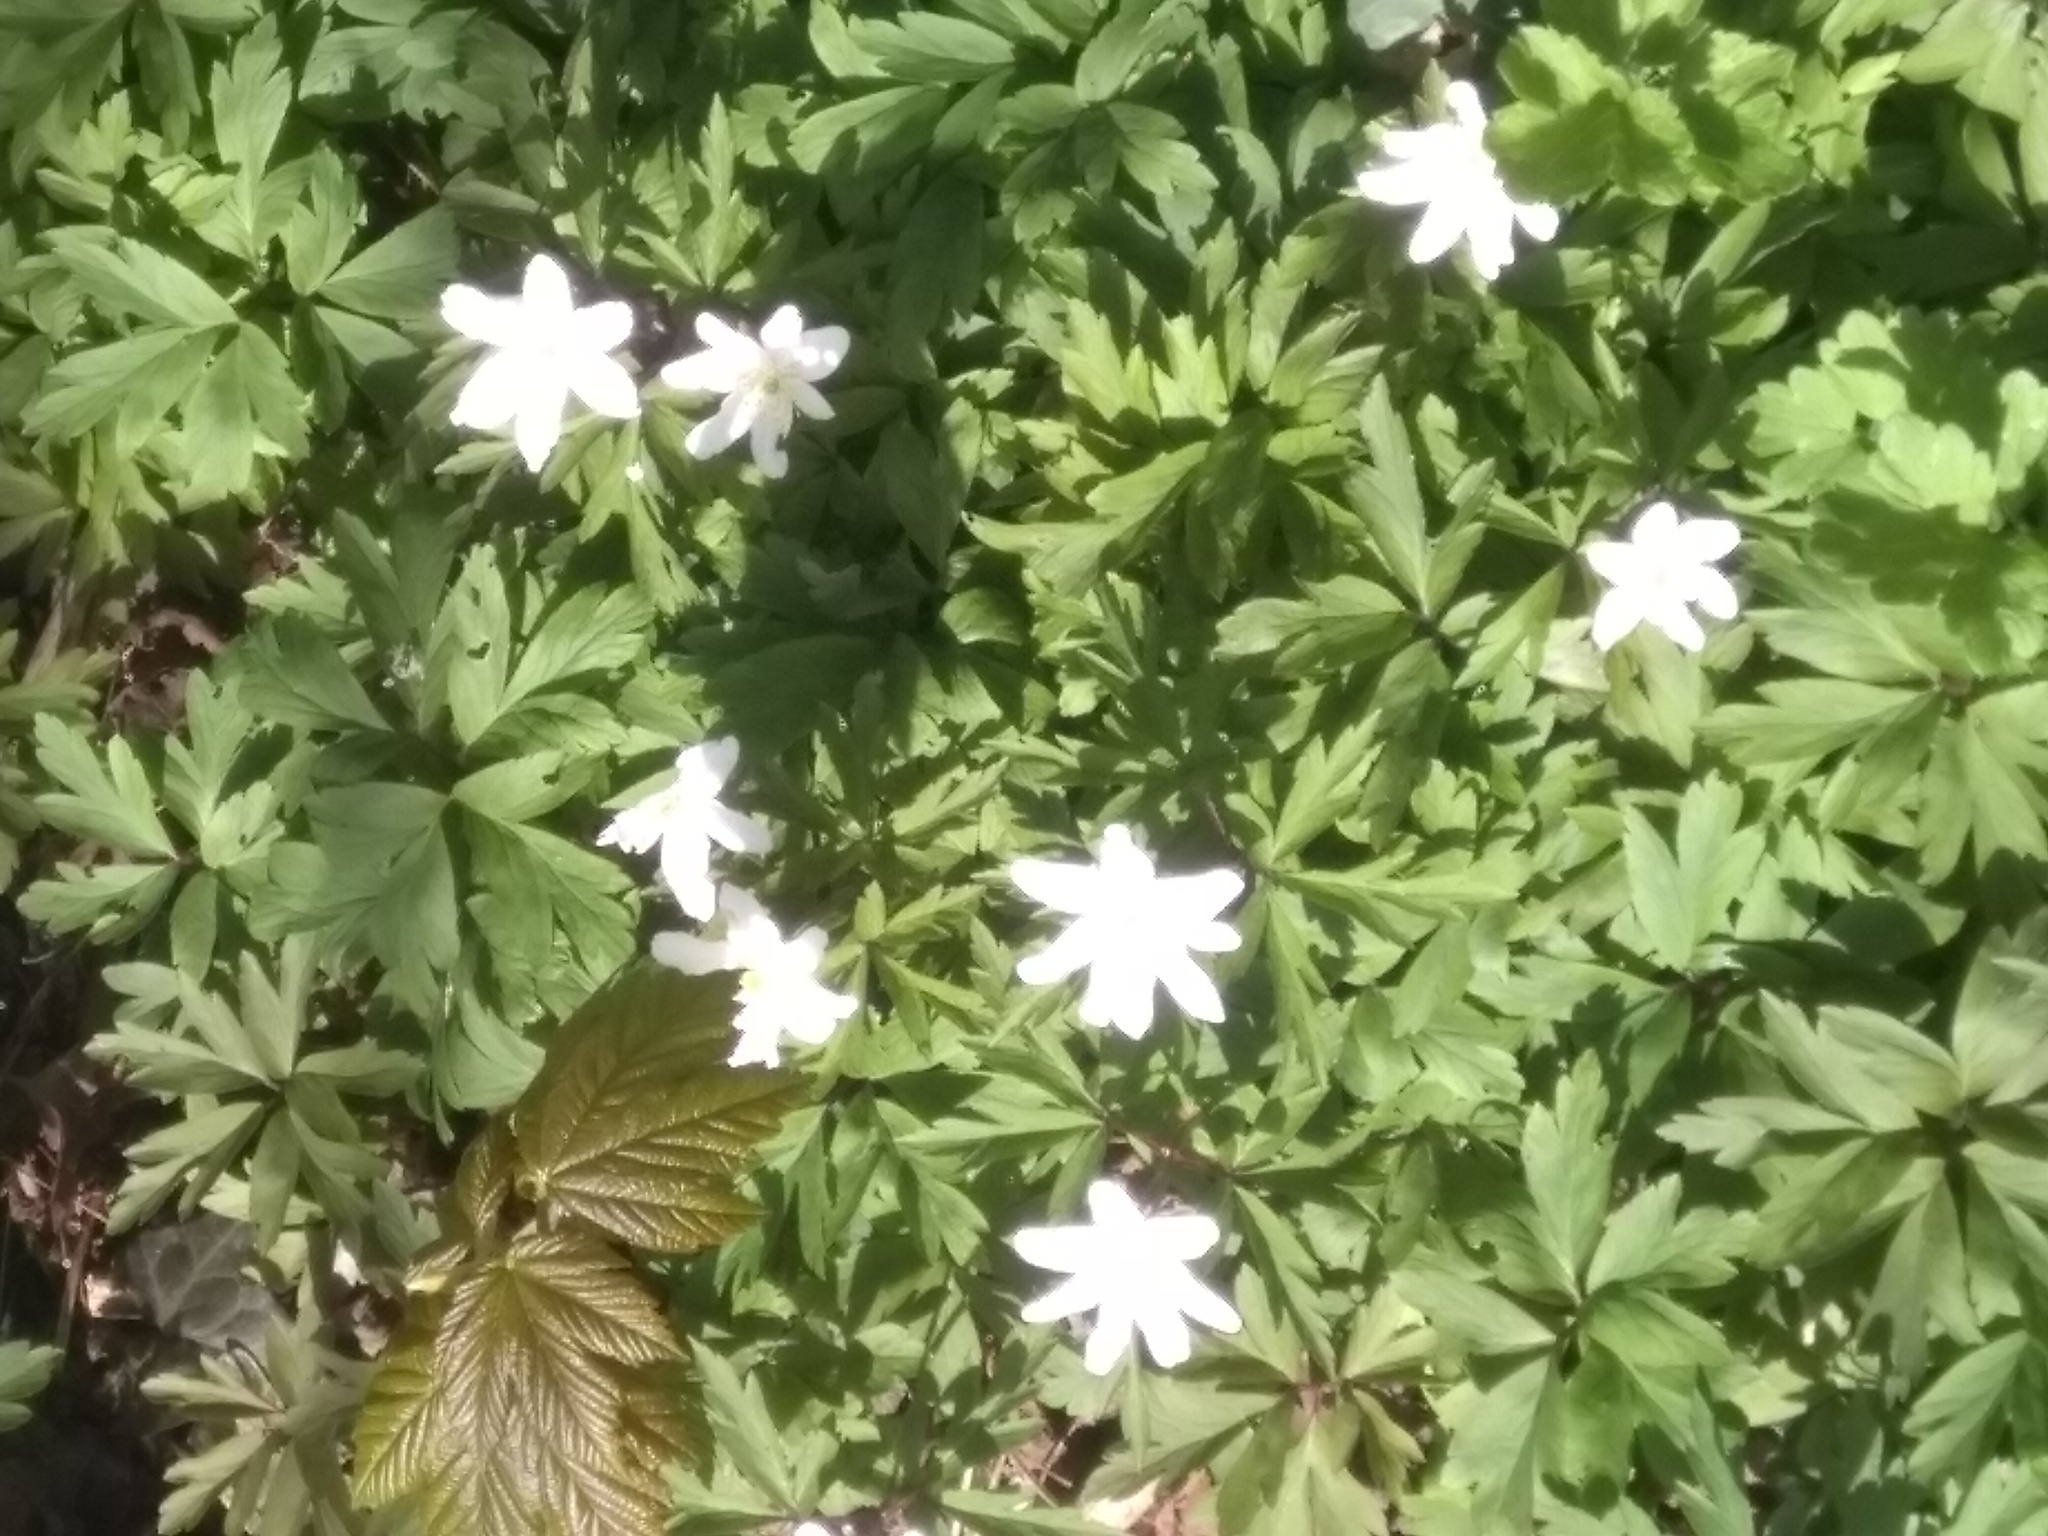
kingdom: Plantae
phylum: Tracheophyta
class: Magnoliopsida
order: Ranunculales
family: Ranunculaceae
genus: Anemone
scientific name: Anemone nemorosa
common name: Wood anemone
